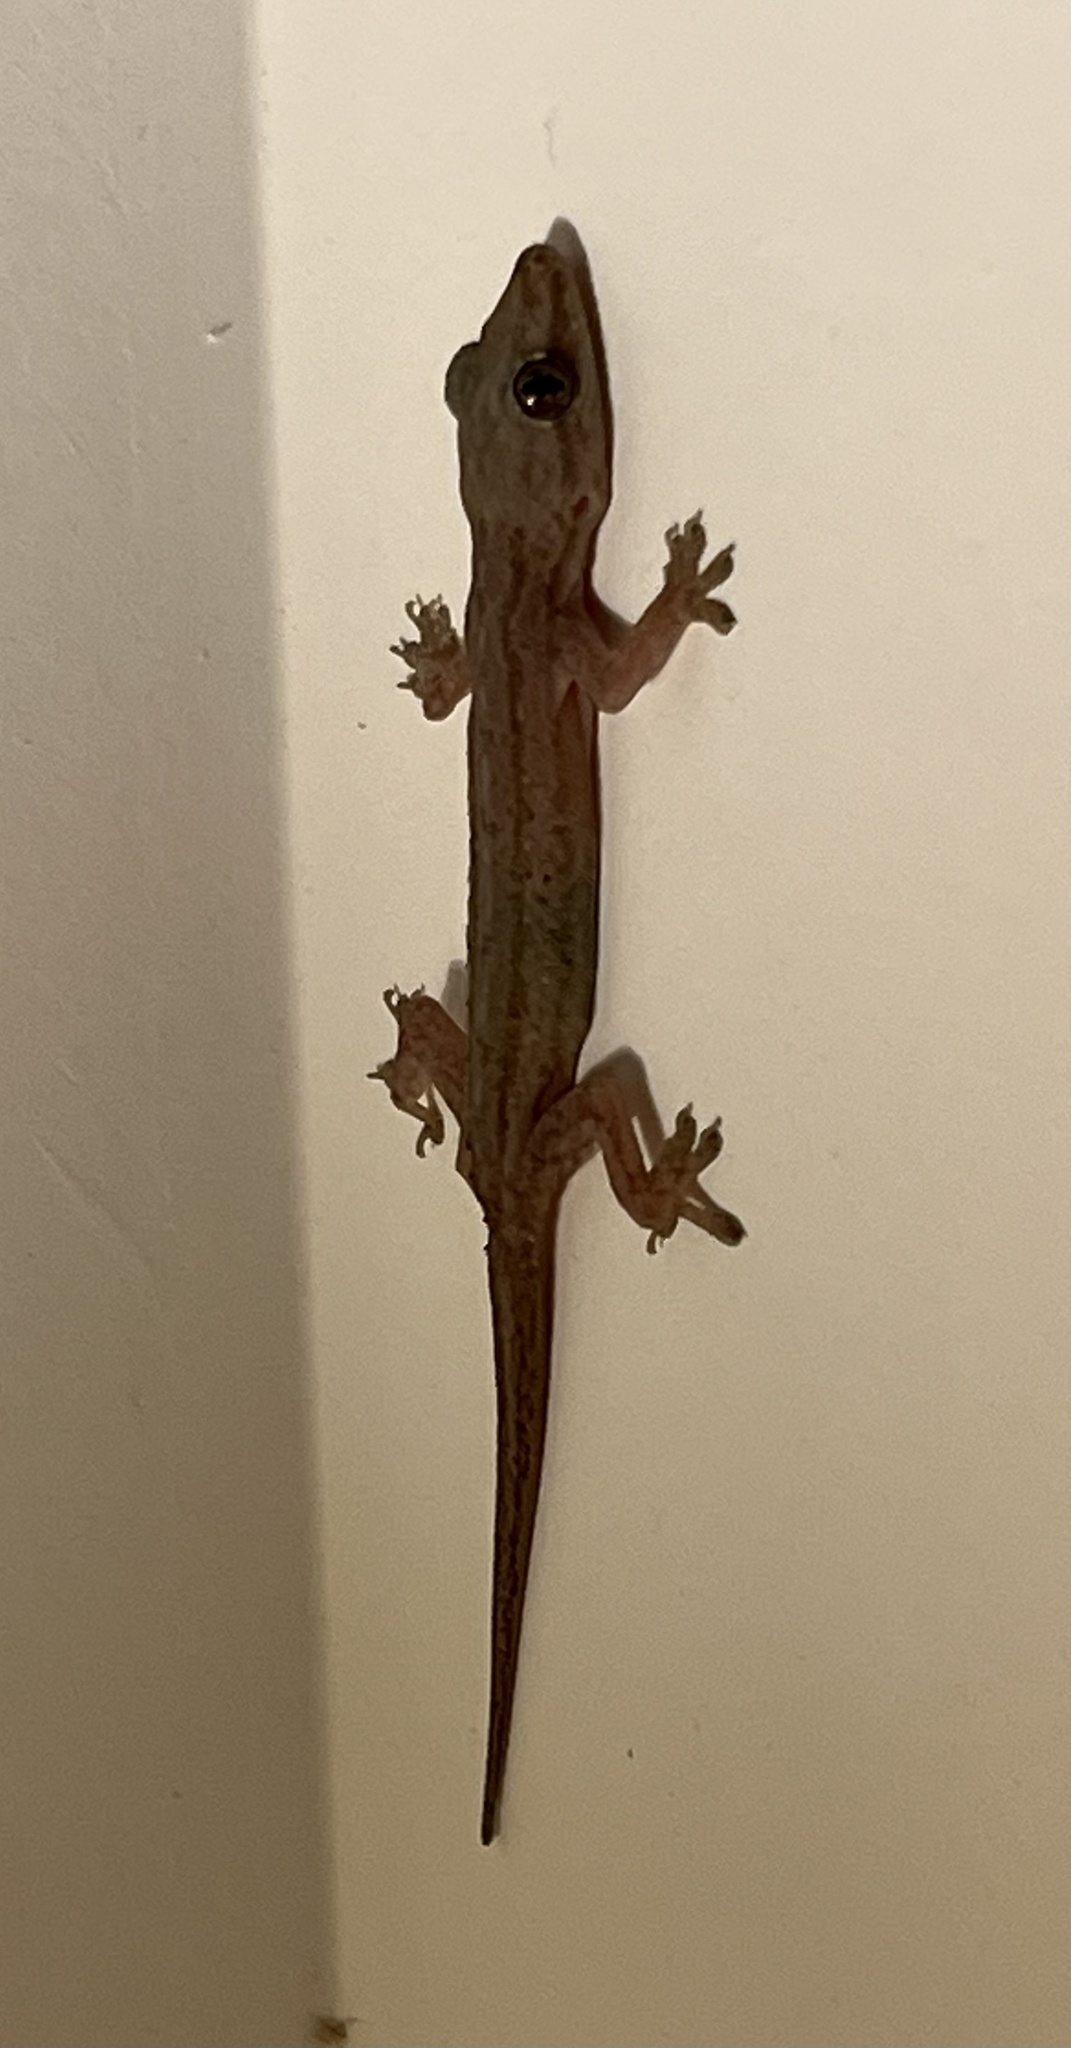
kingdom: Animalia
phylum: Chordata
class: Squamata
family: Gekkonidae
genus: Hemidactylus
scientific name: Hemidactylus frenatus
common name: Common house gecko
